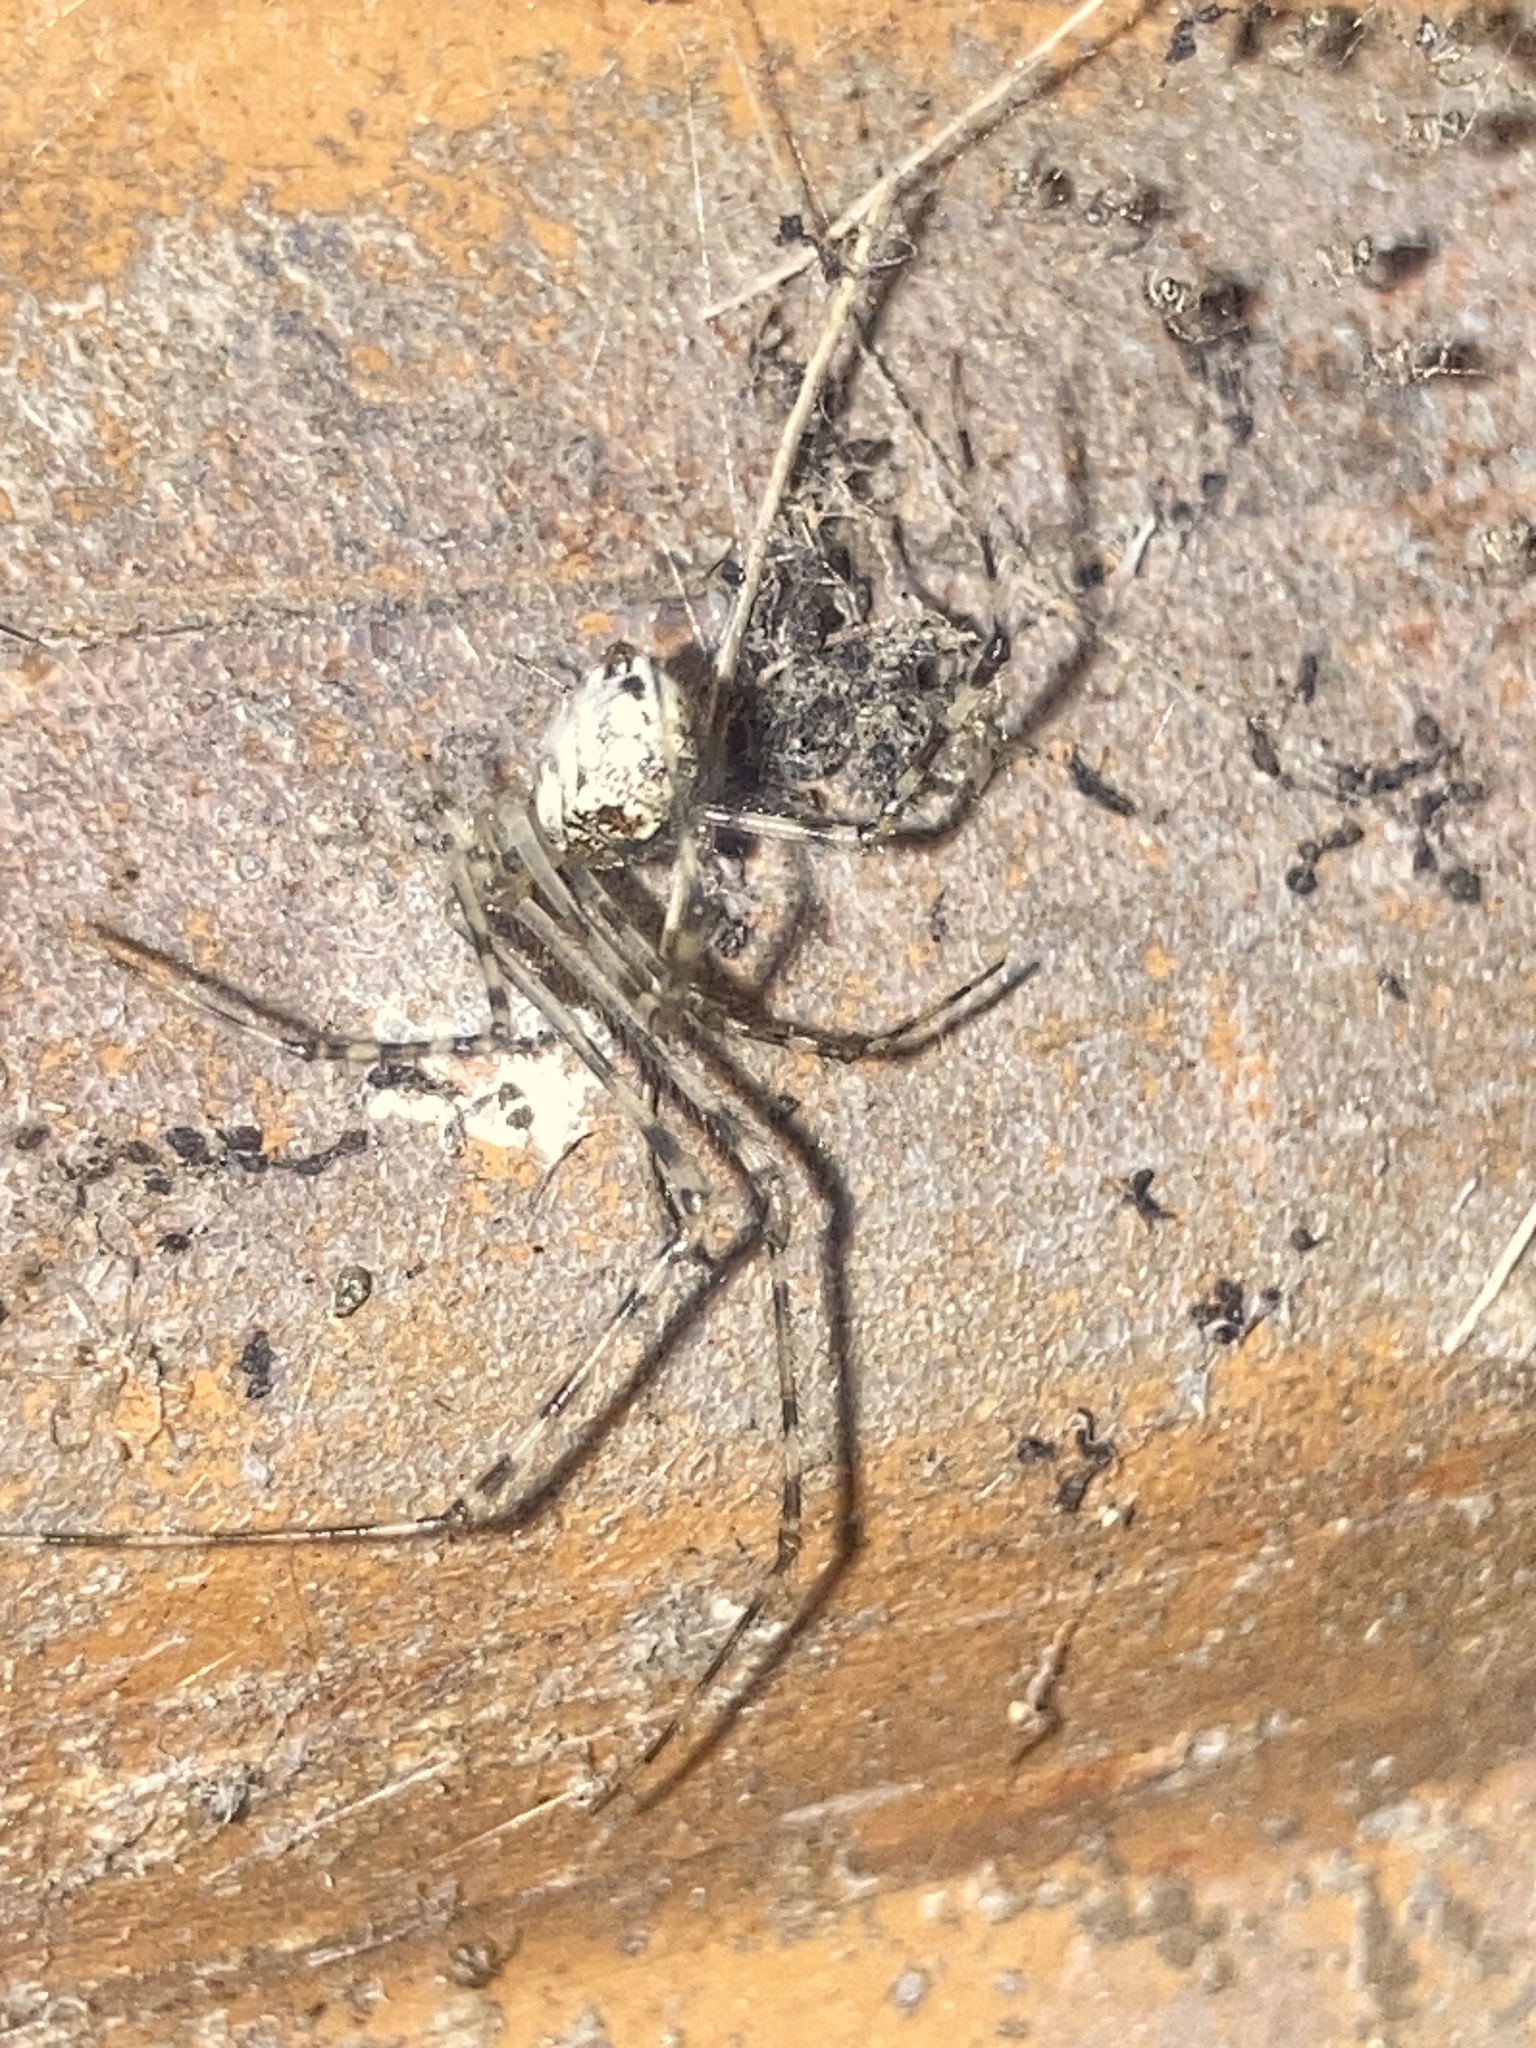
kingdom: Animalia
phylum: Arthropoda
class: Arachnida
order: Araneae
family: Theridiidae
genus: Cryptachaea
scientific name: Cryptachaea gigantipes
